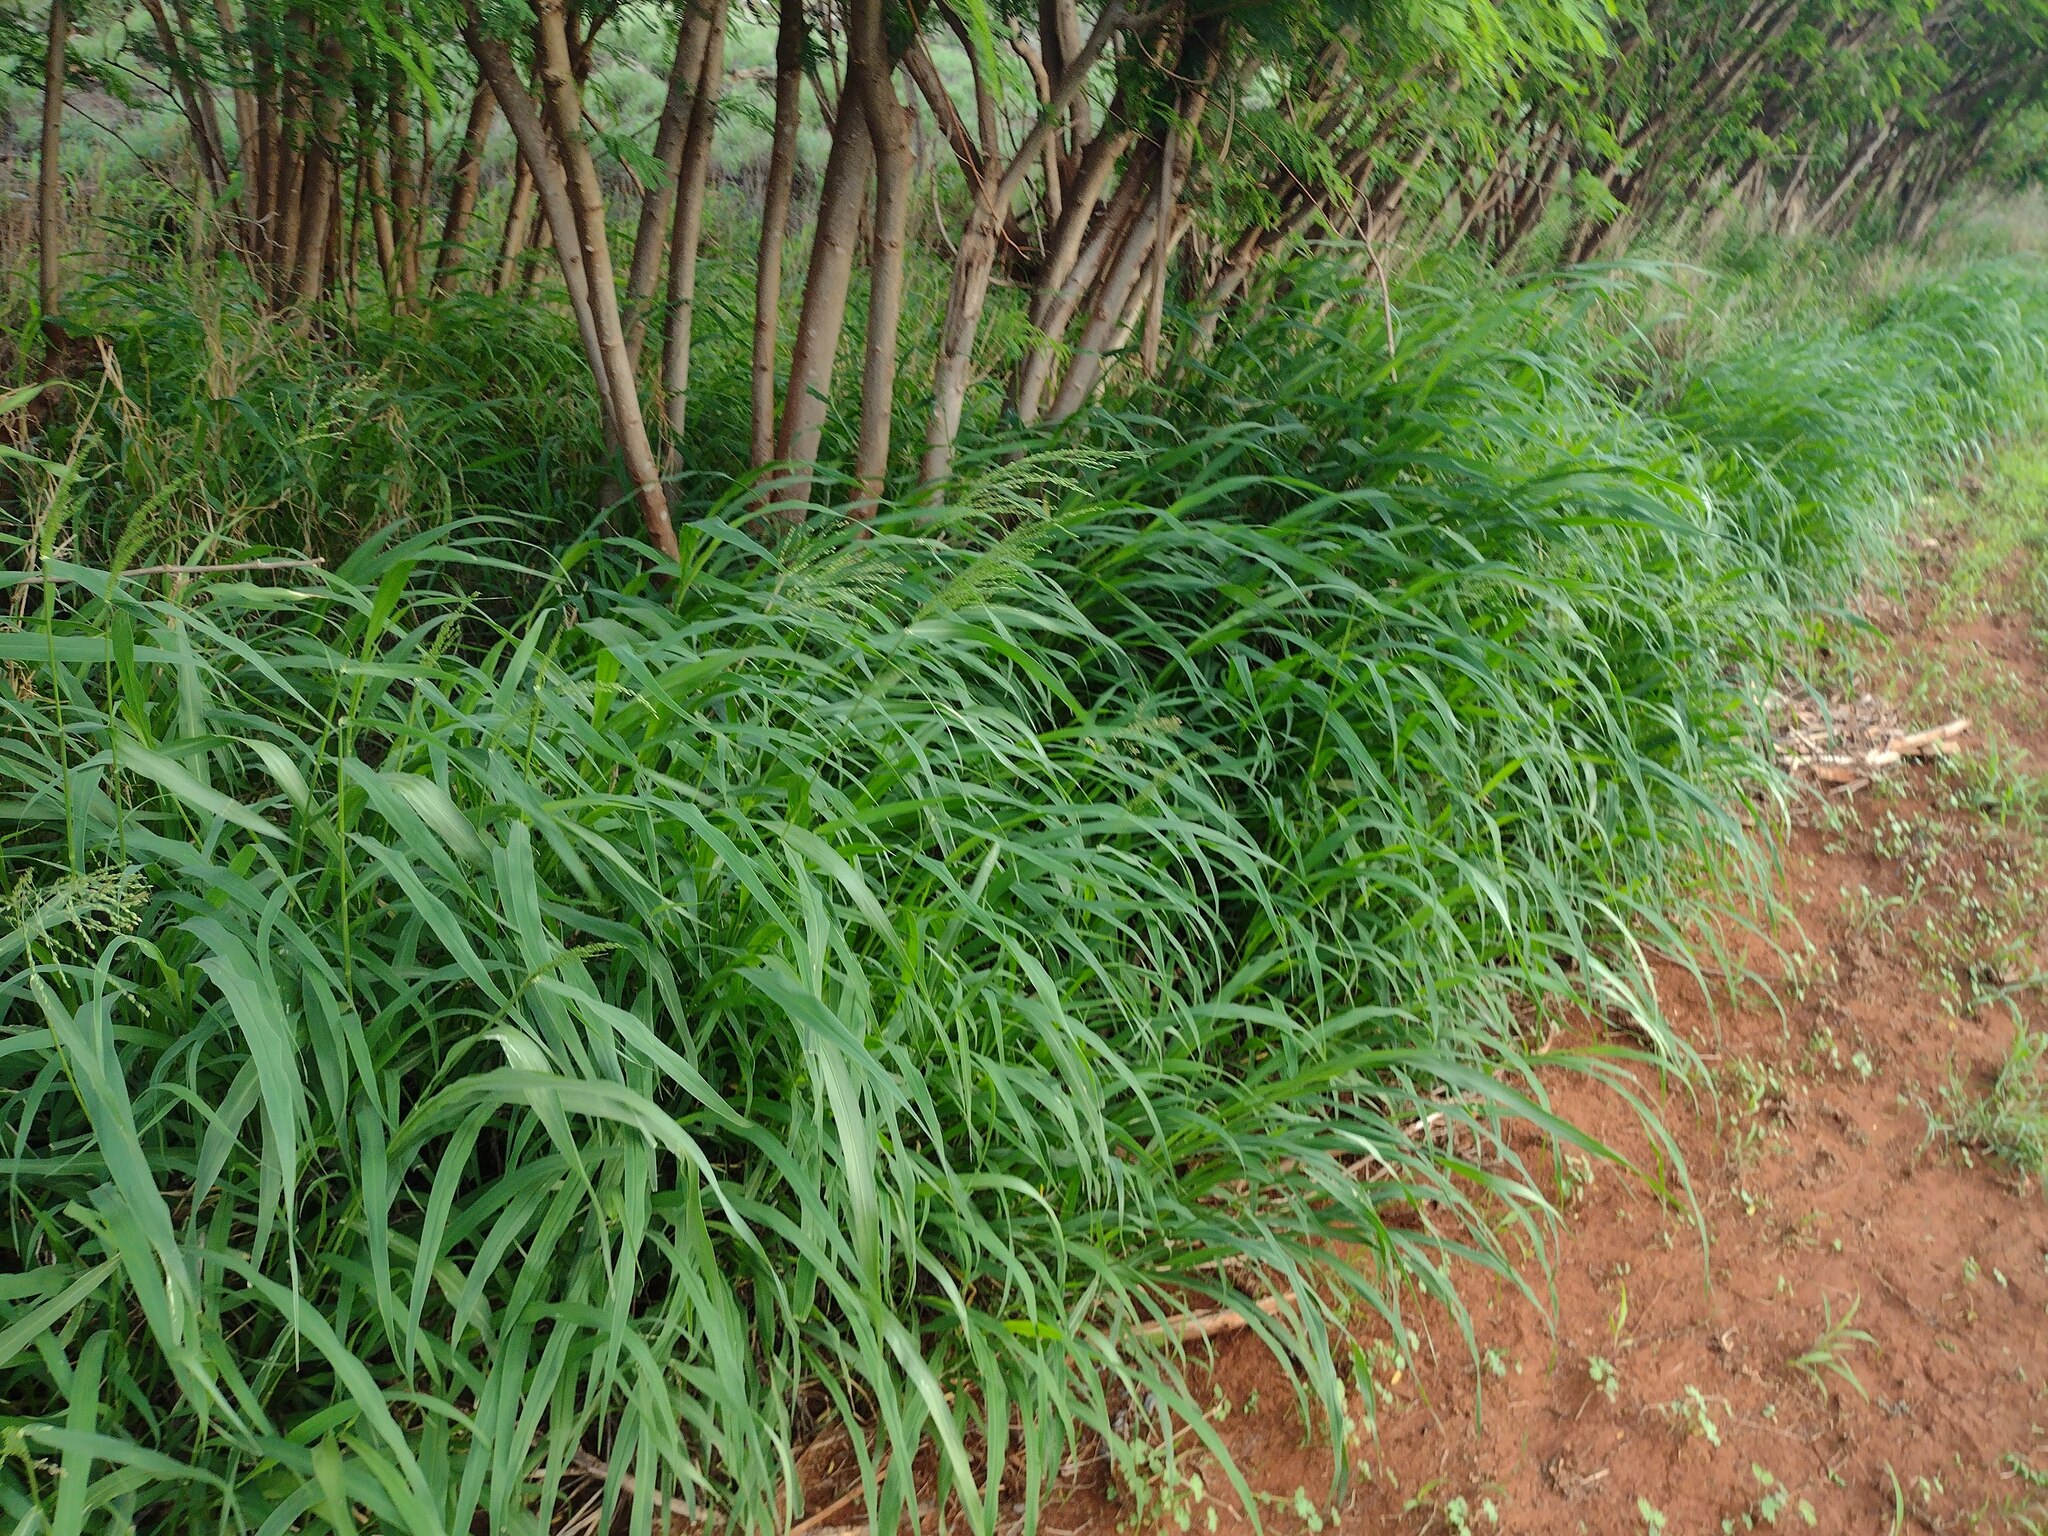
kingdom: Plantae
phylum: Tracheophyta
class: Liliopsida
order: Poales
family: Poaceae
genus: Megathyrsus
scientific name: Megathyrsus maximus
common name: Guineagrass
